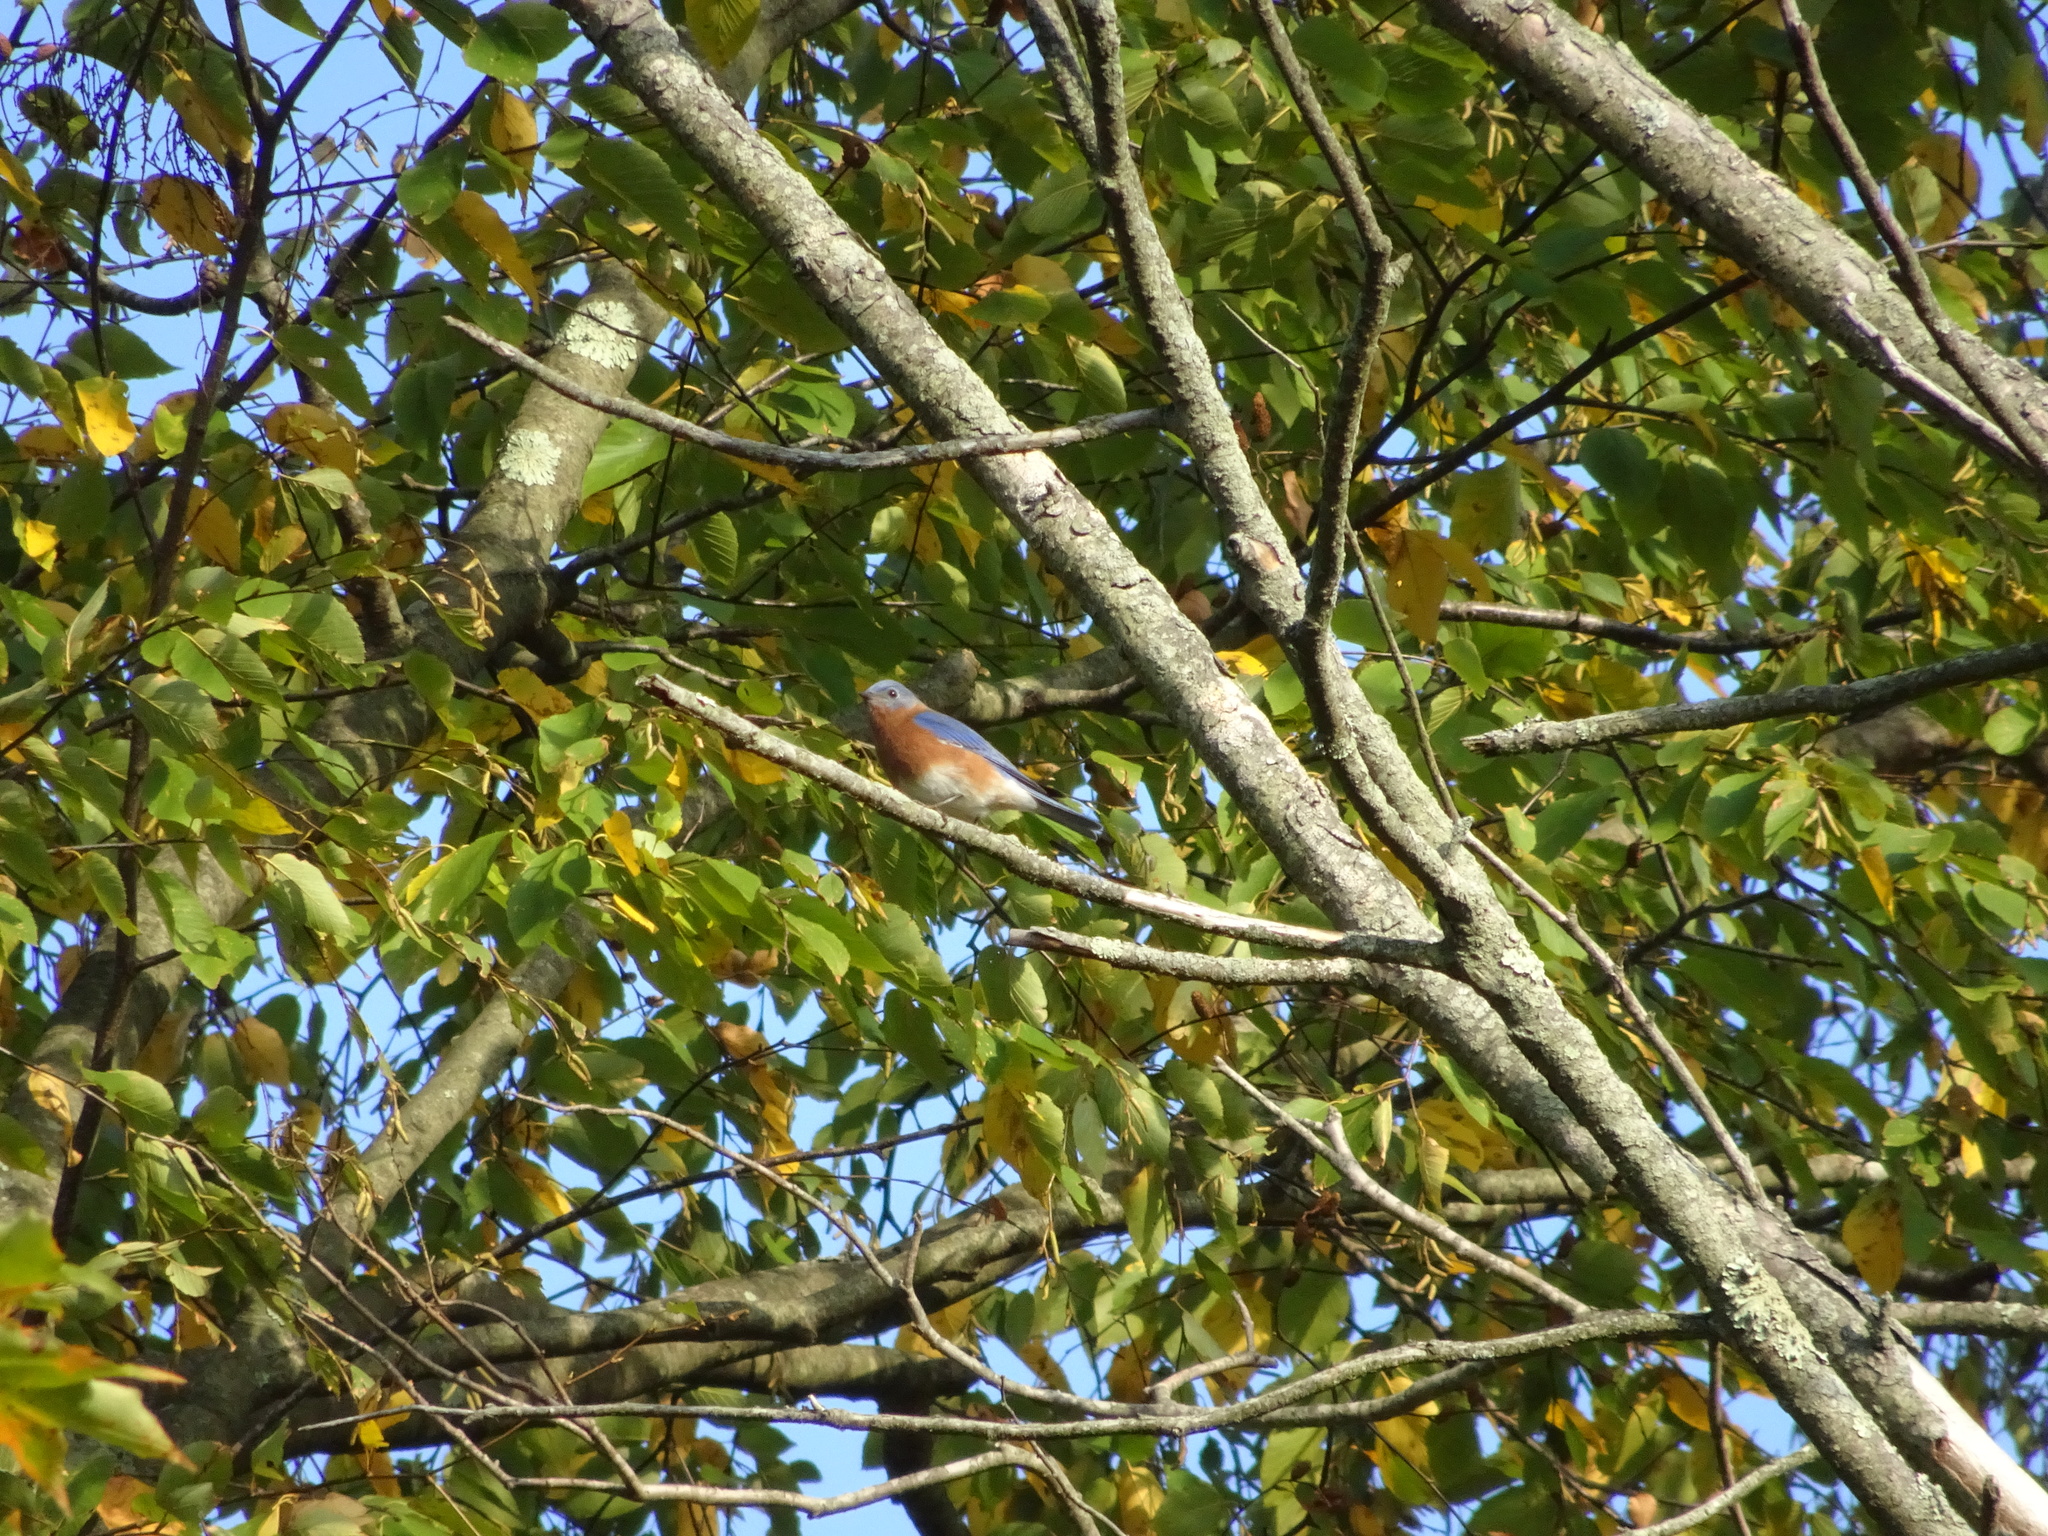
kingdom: Animalia
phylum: Chordata
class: Aves
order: Passeriformes
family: Turdidae
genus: Sialia
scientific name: Sialia sialis
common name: Eastern bluebird
